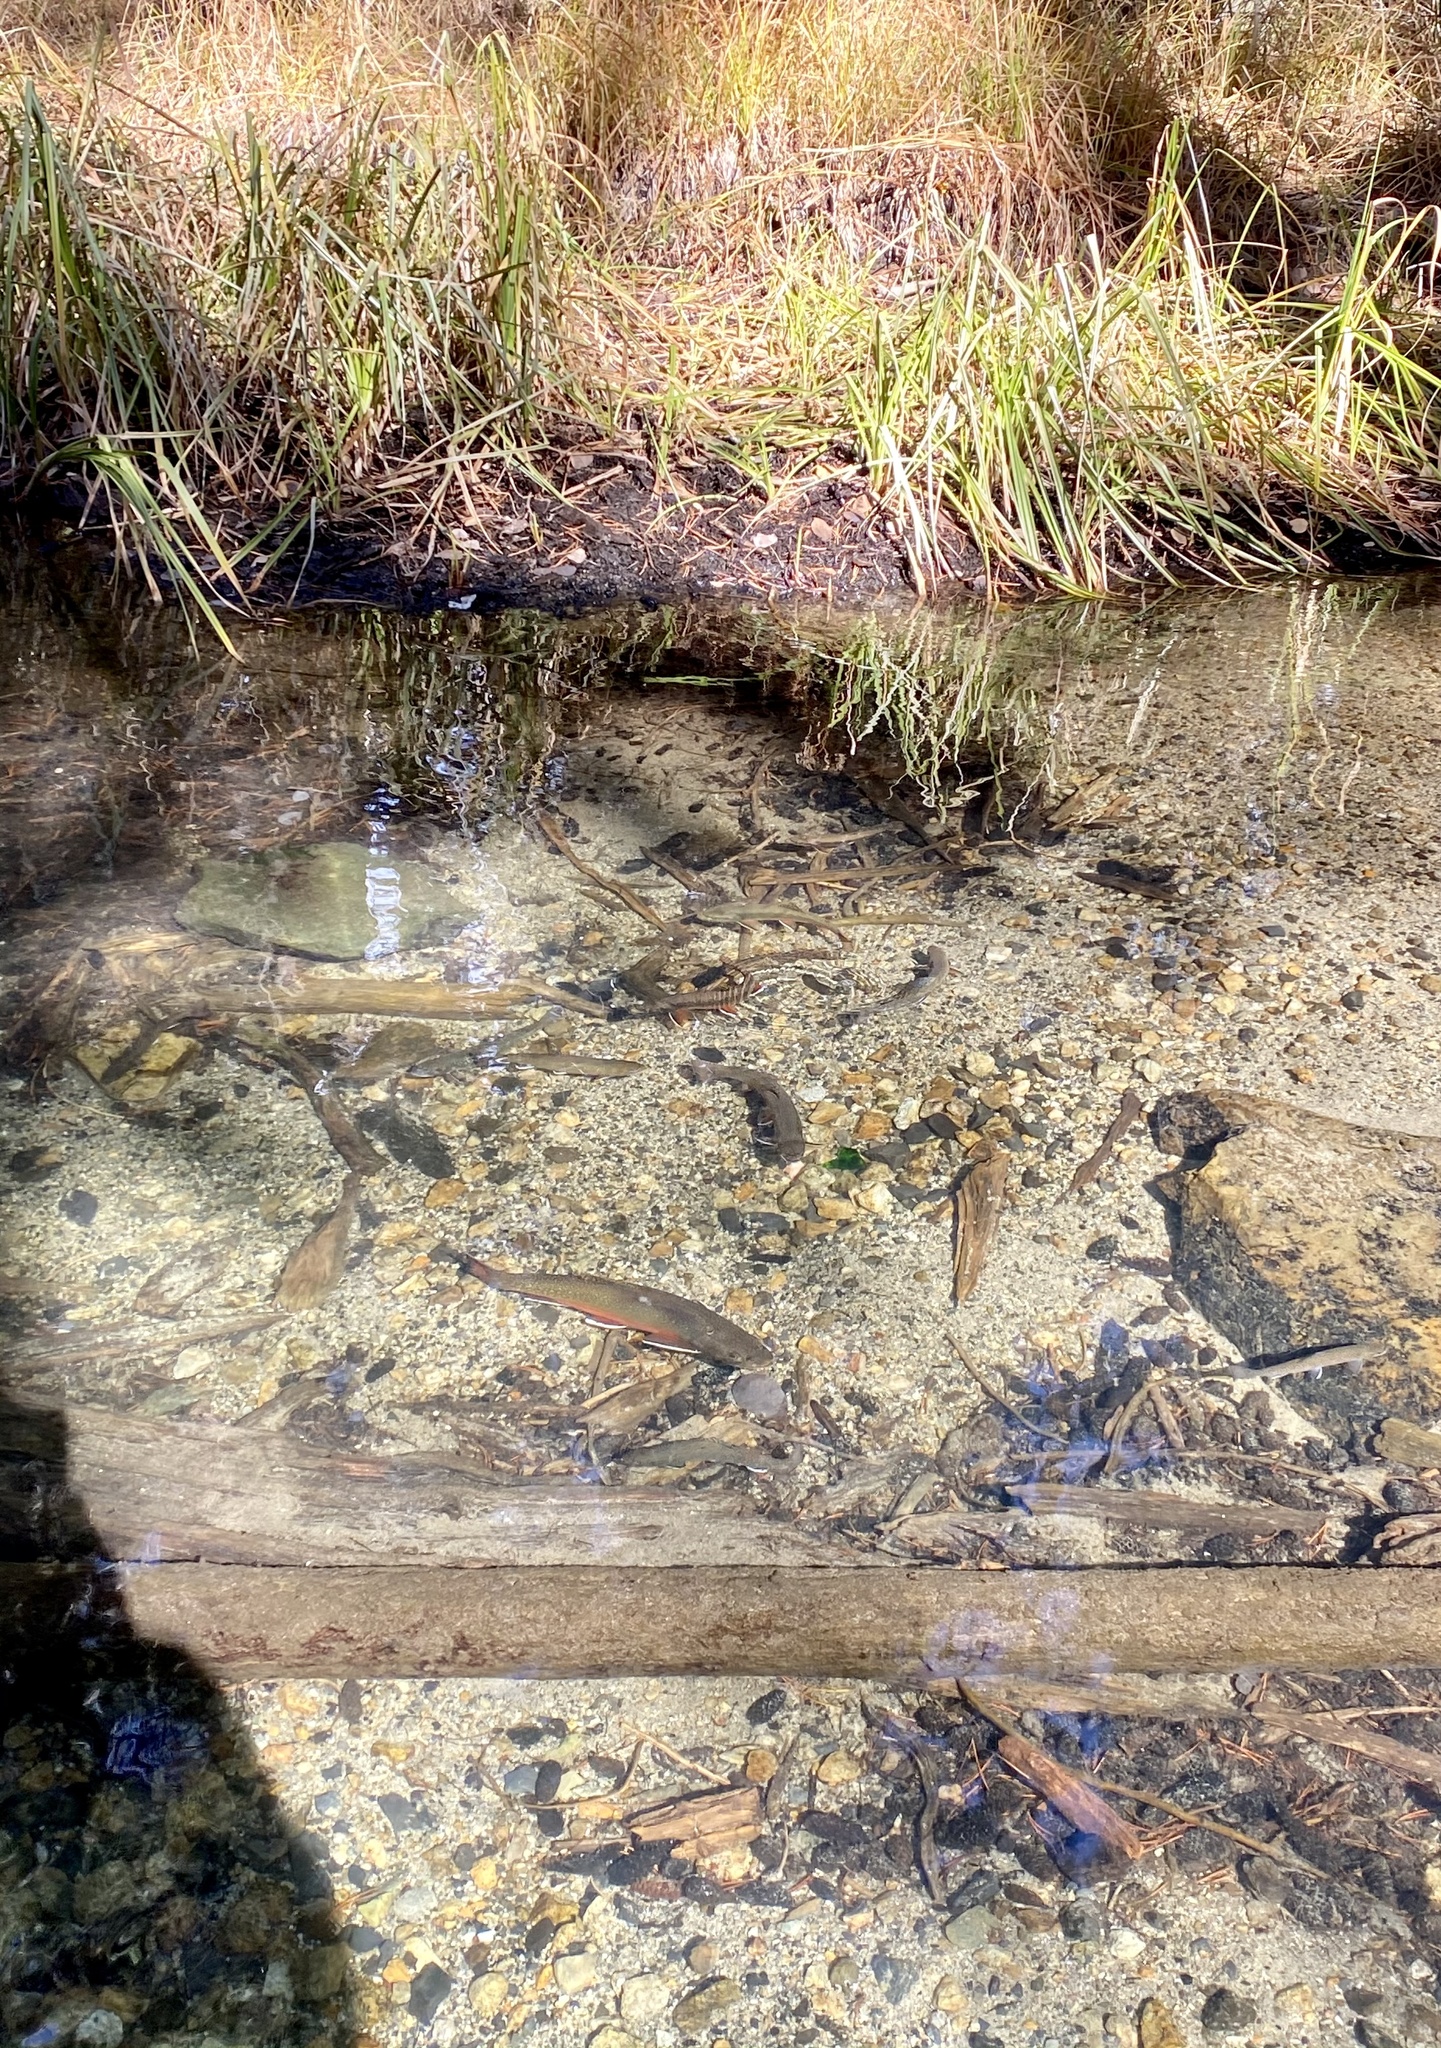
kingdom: Animalia
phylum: Chordata
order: Salmoniformes
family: Salmonidae
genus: Salvelinus
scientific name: Salvelinus fontinalis
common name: Brook trout
